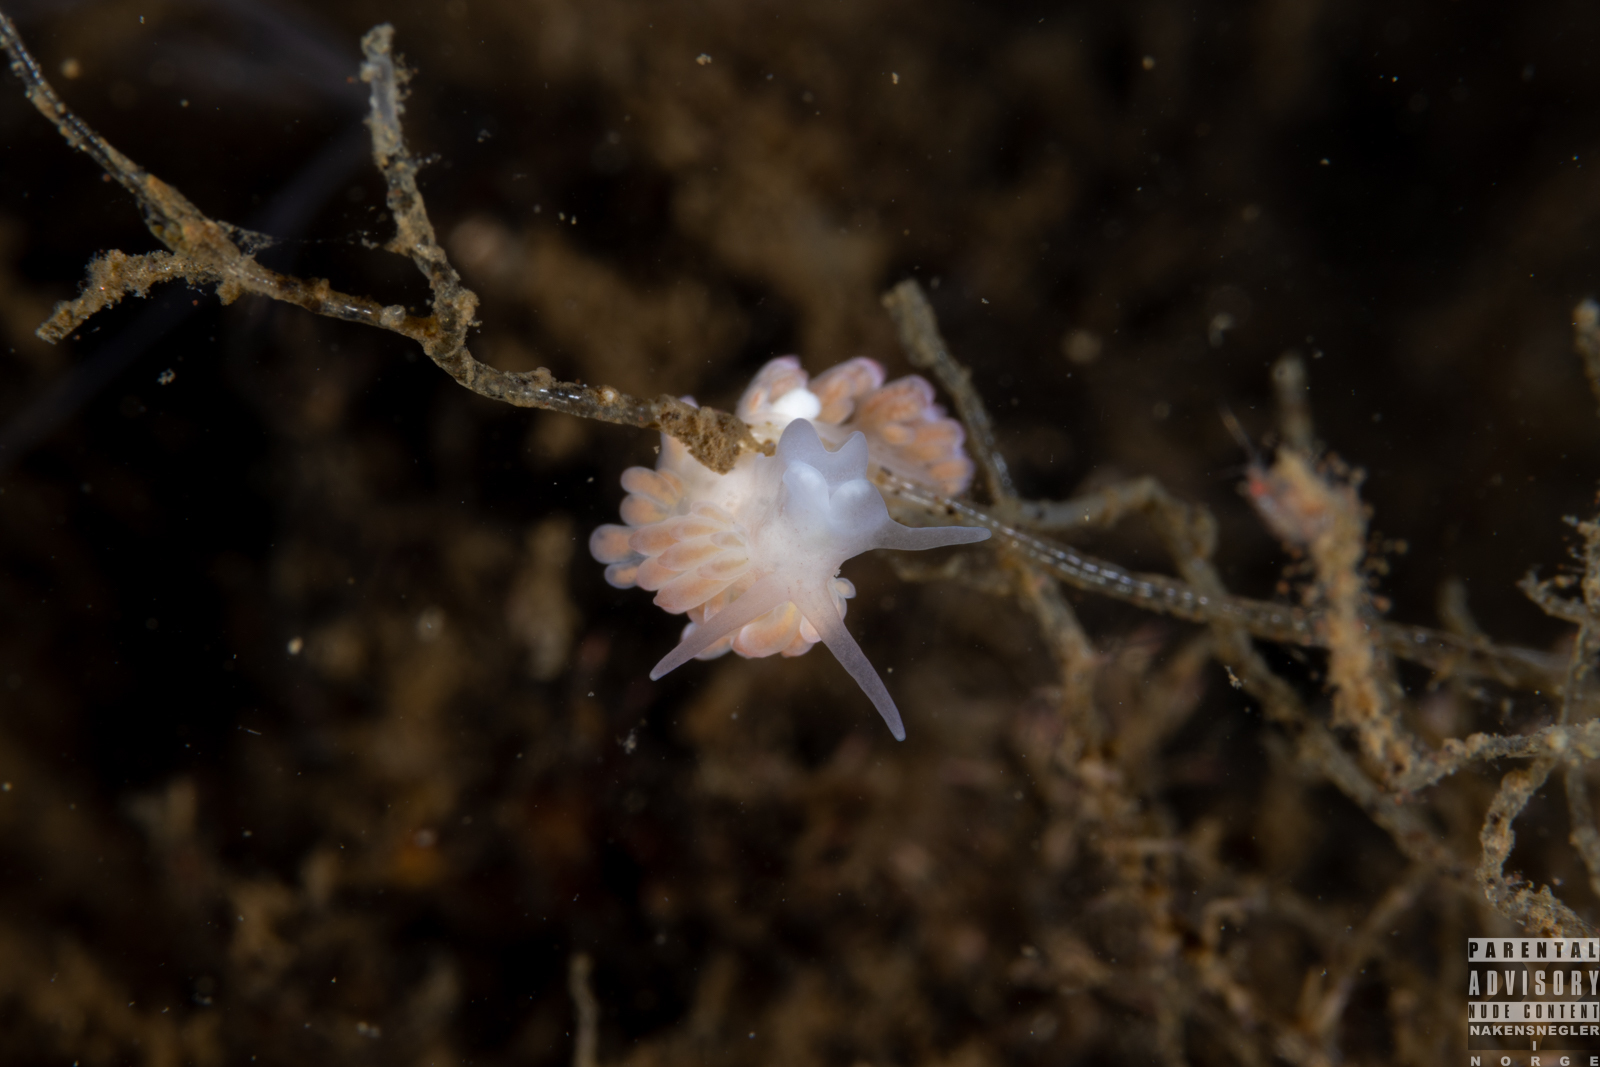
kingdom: Animalia
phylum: Mollusca
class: Gastropoda
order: Nudibranchia
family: Trinchesiidae
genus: Catriona
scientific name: Catriona aurantia
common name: Corange-tip cuthona
